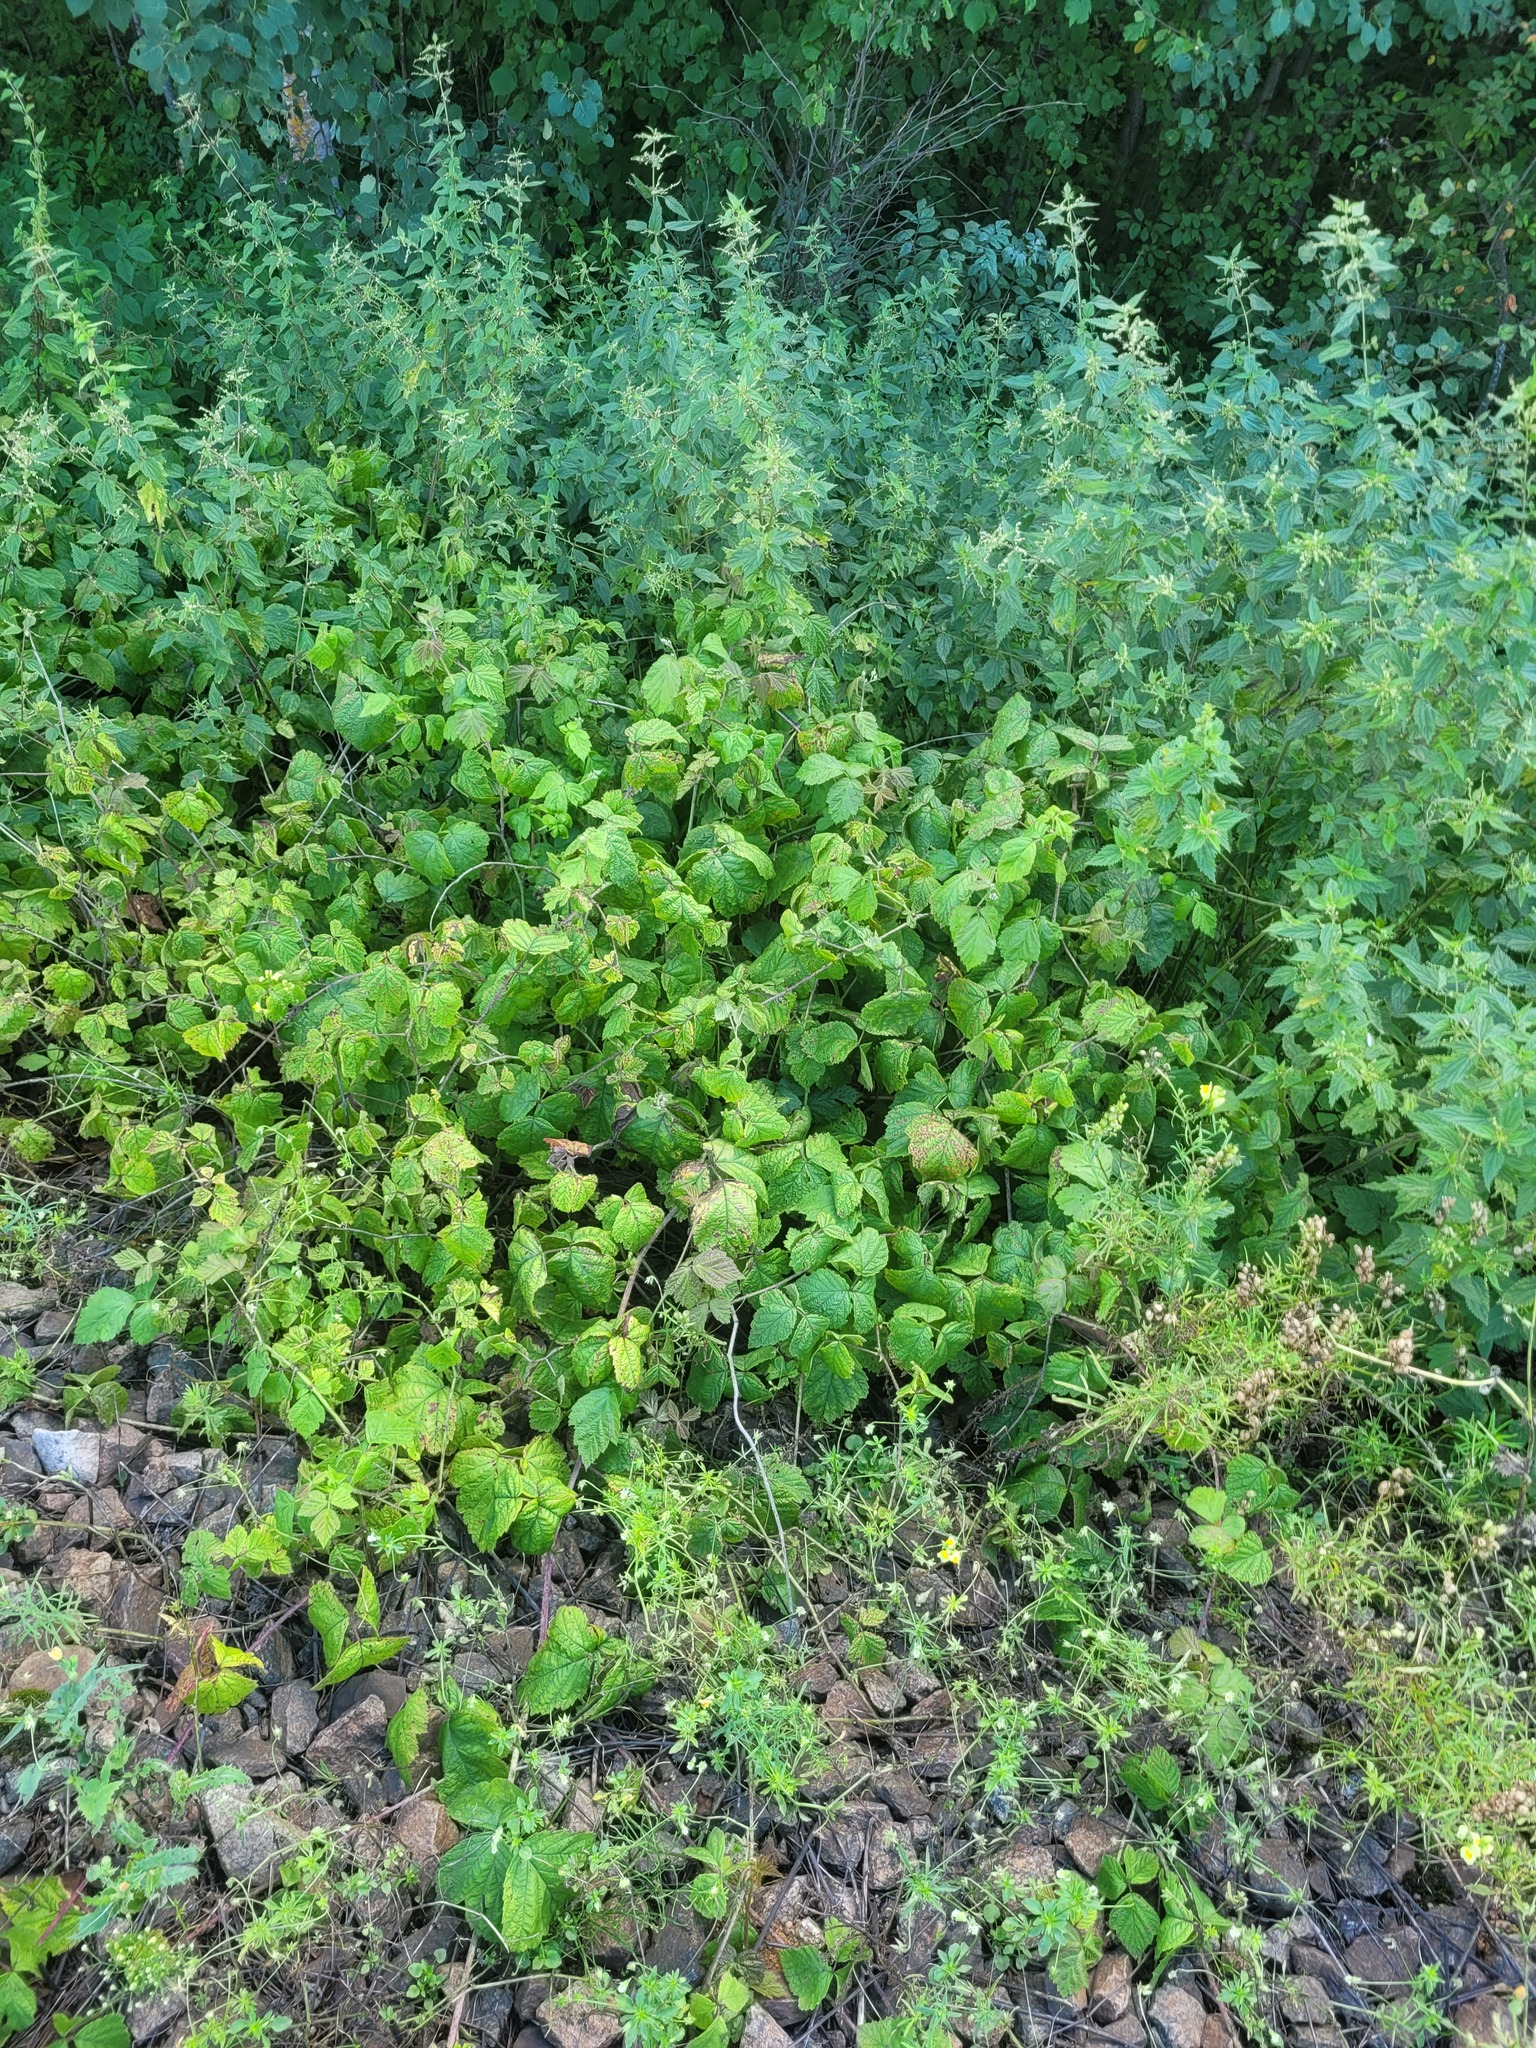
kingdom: Plantae
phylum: Tracheophyta
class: Magnoliopsida
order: Rosales
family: Rosaceae
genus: Rubus
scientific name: Rubus caesius
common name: Dewberry
